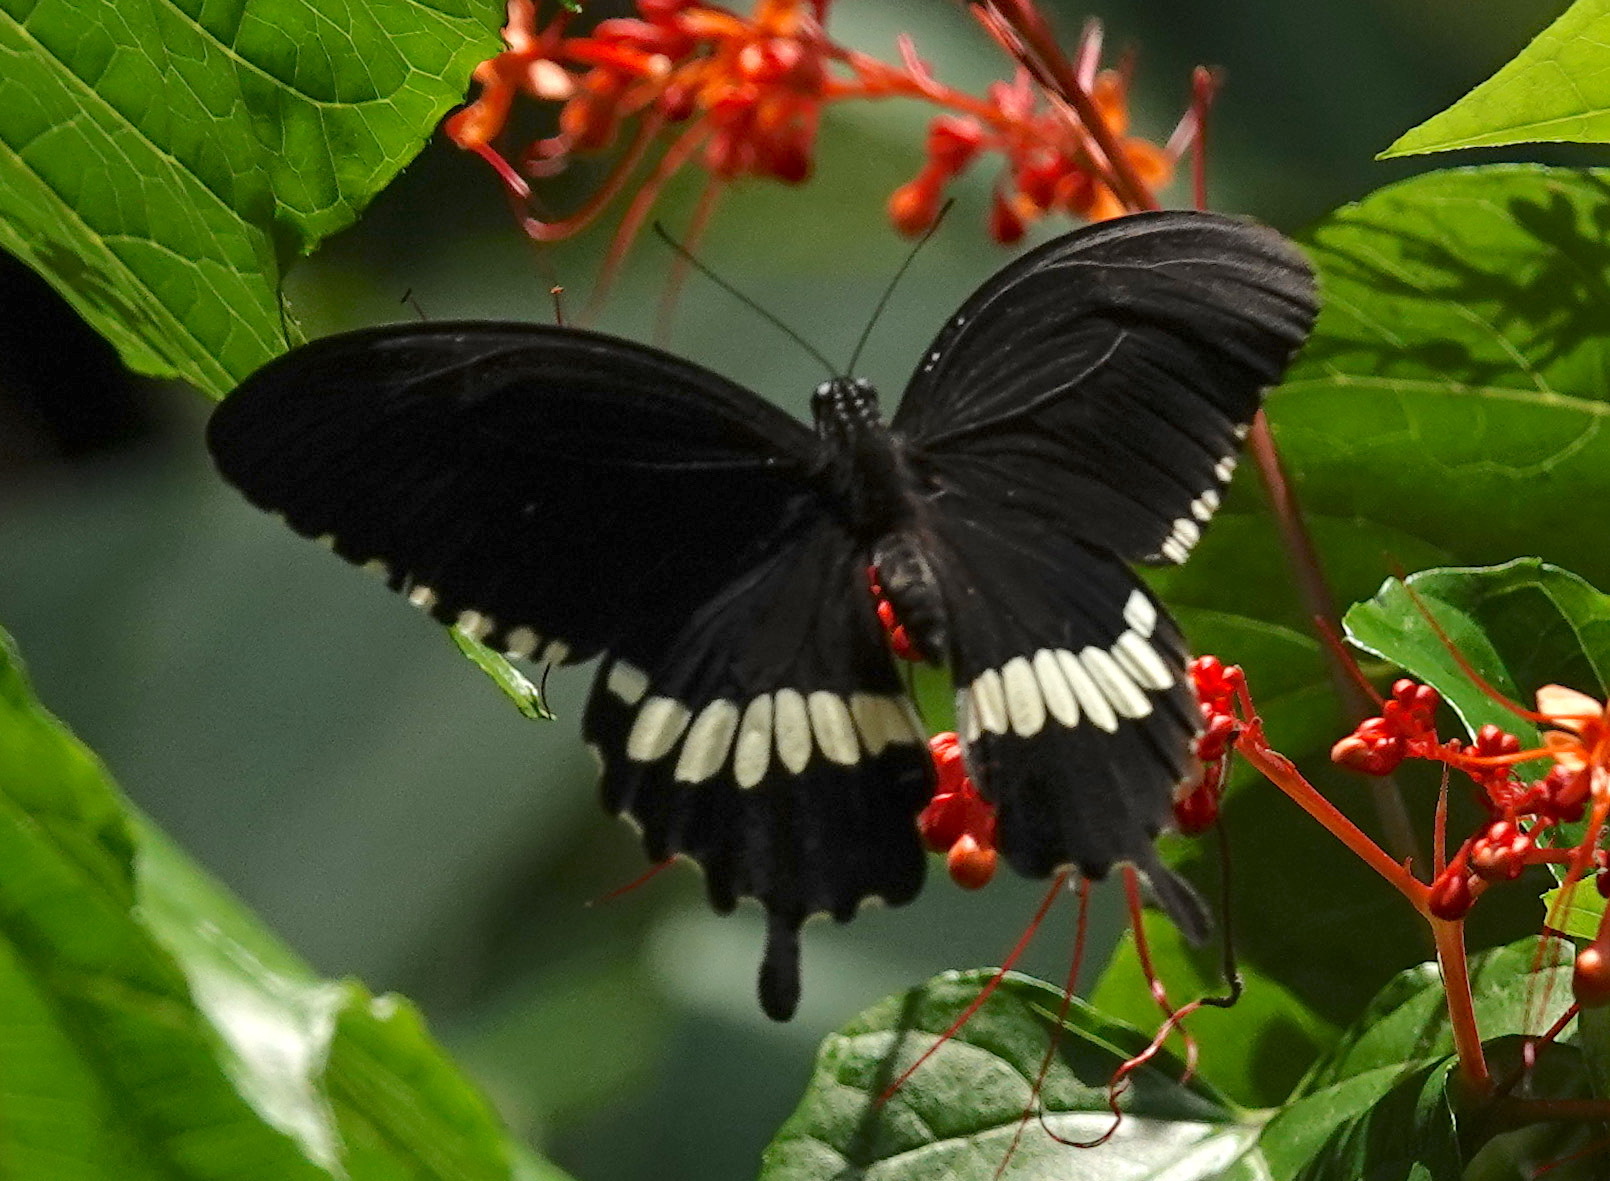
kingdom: Animalia
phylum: Arthropoda
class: Insecta
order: Lepidoptera
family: Papilionidae
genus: Papilio
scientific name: Papilio polytes
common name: Common mormon
